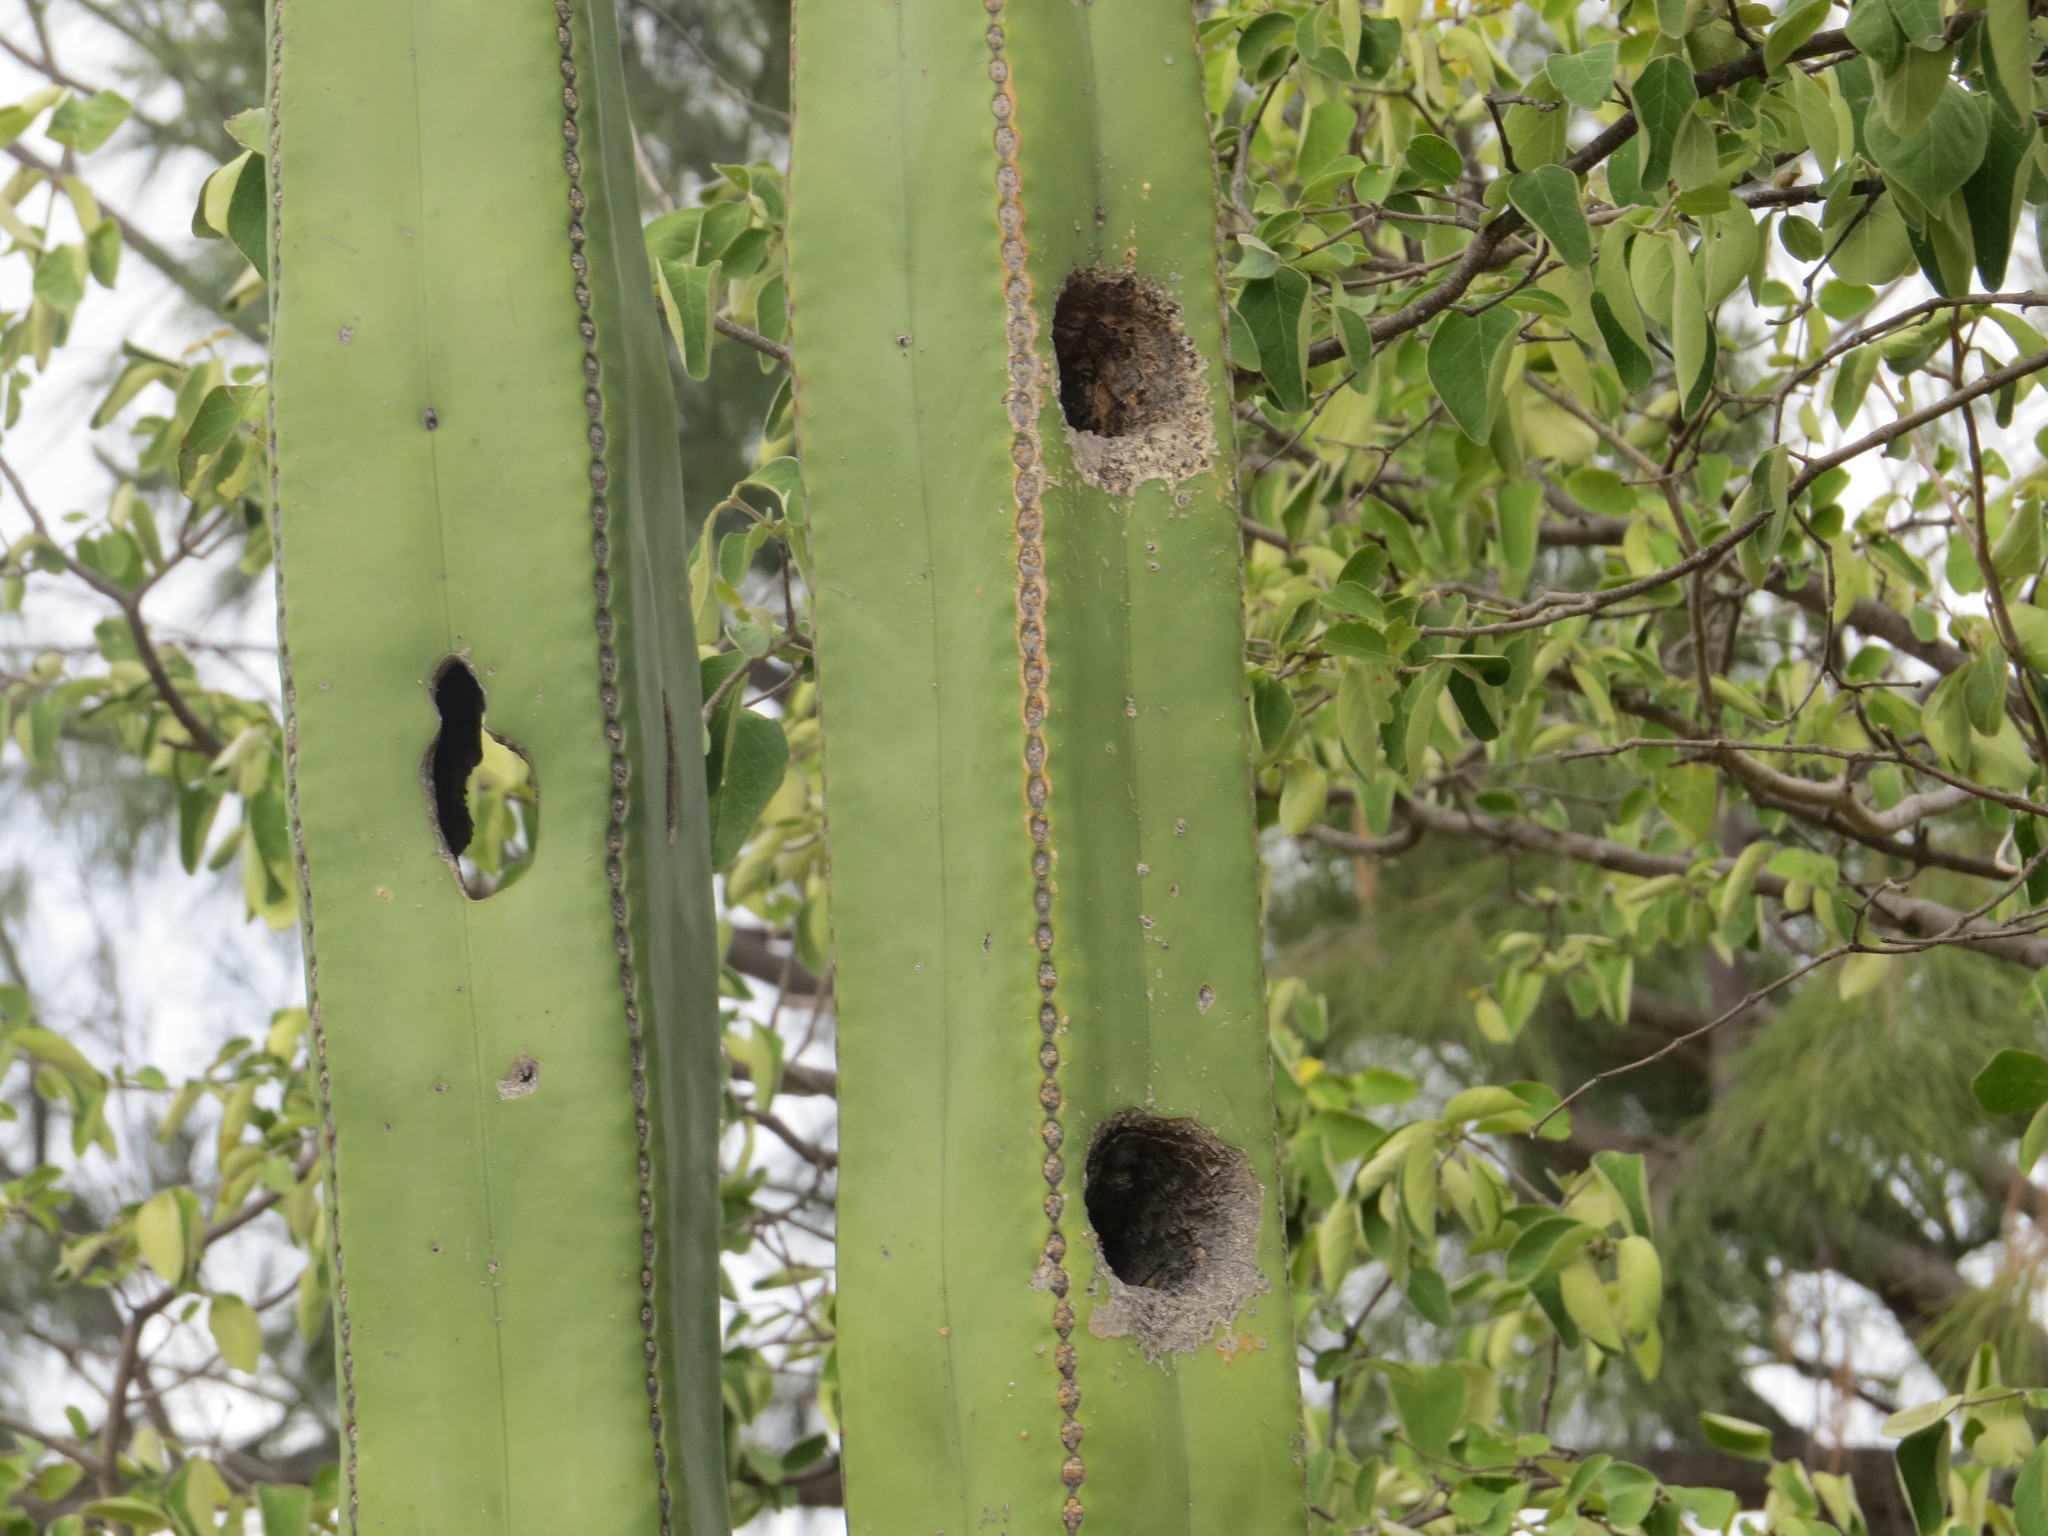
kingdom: Plantae
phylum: Tracheophyta
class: Magnoliopsida
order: Caryophyllales
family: Cactaceae
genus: Marginatocereus
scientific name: Marginatocereus marginatus
